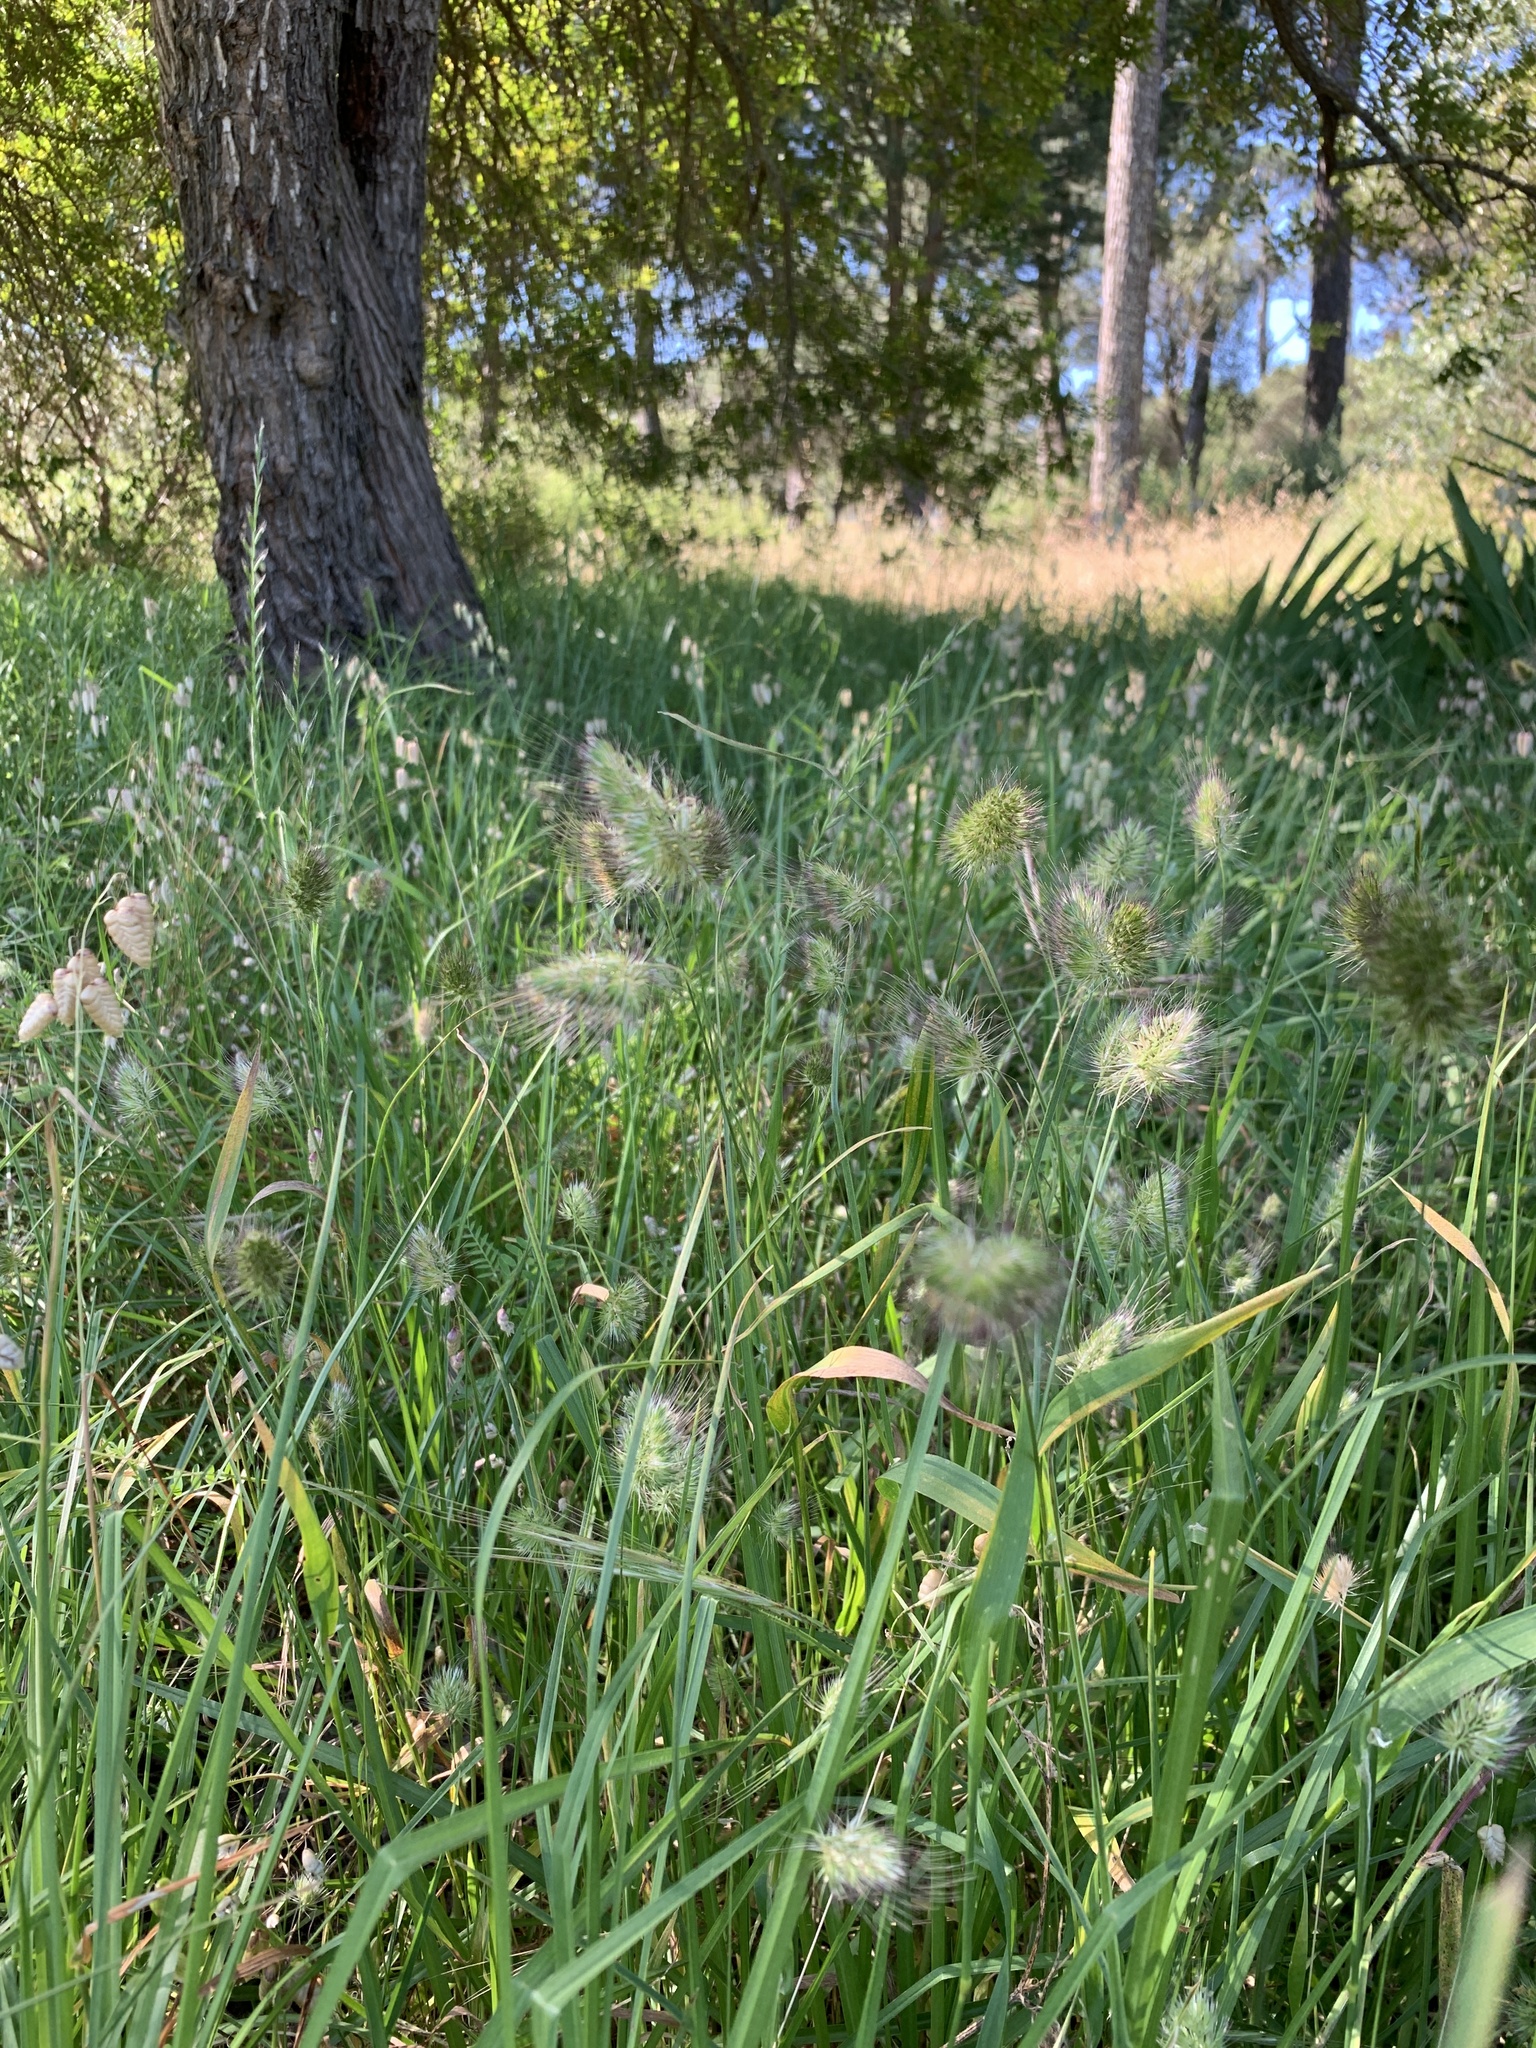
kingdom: Plantae
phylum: Tracheophyta
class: Liliopsida
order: Poales
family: Poaceae
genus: Cynosurus
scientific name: Cynosurus echinatus
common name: Rough dog's-tail
